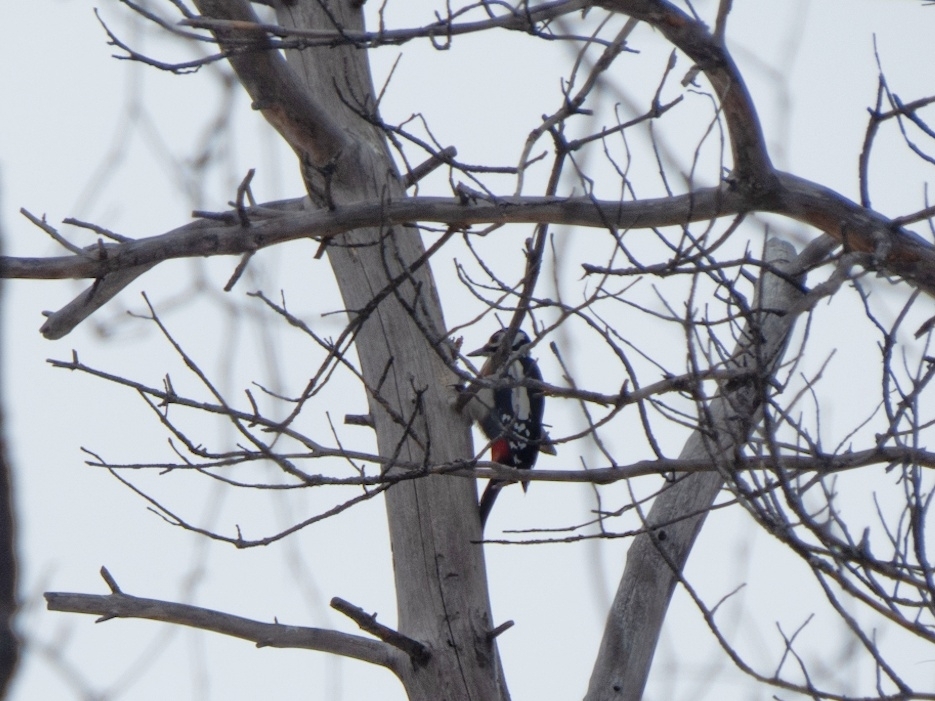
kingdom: Animalia
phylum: Chordata
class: Aves
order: Piciformes
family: Picidae
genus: Dendrocopos
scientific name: Dendrocopos major
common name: Great spotted woodpecker
